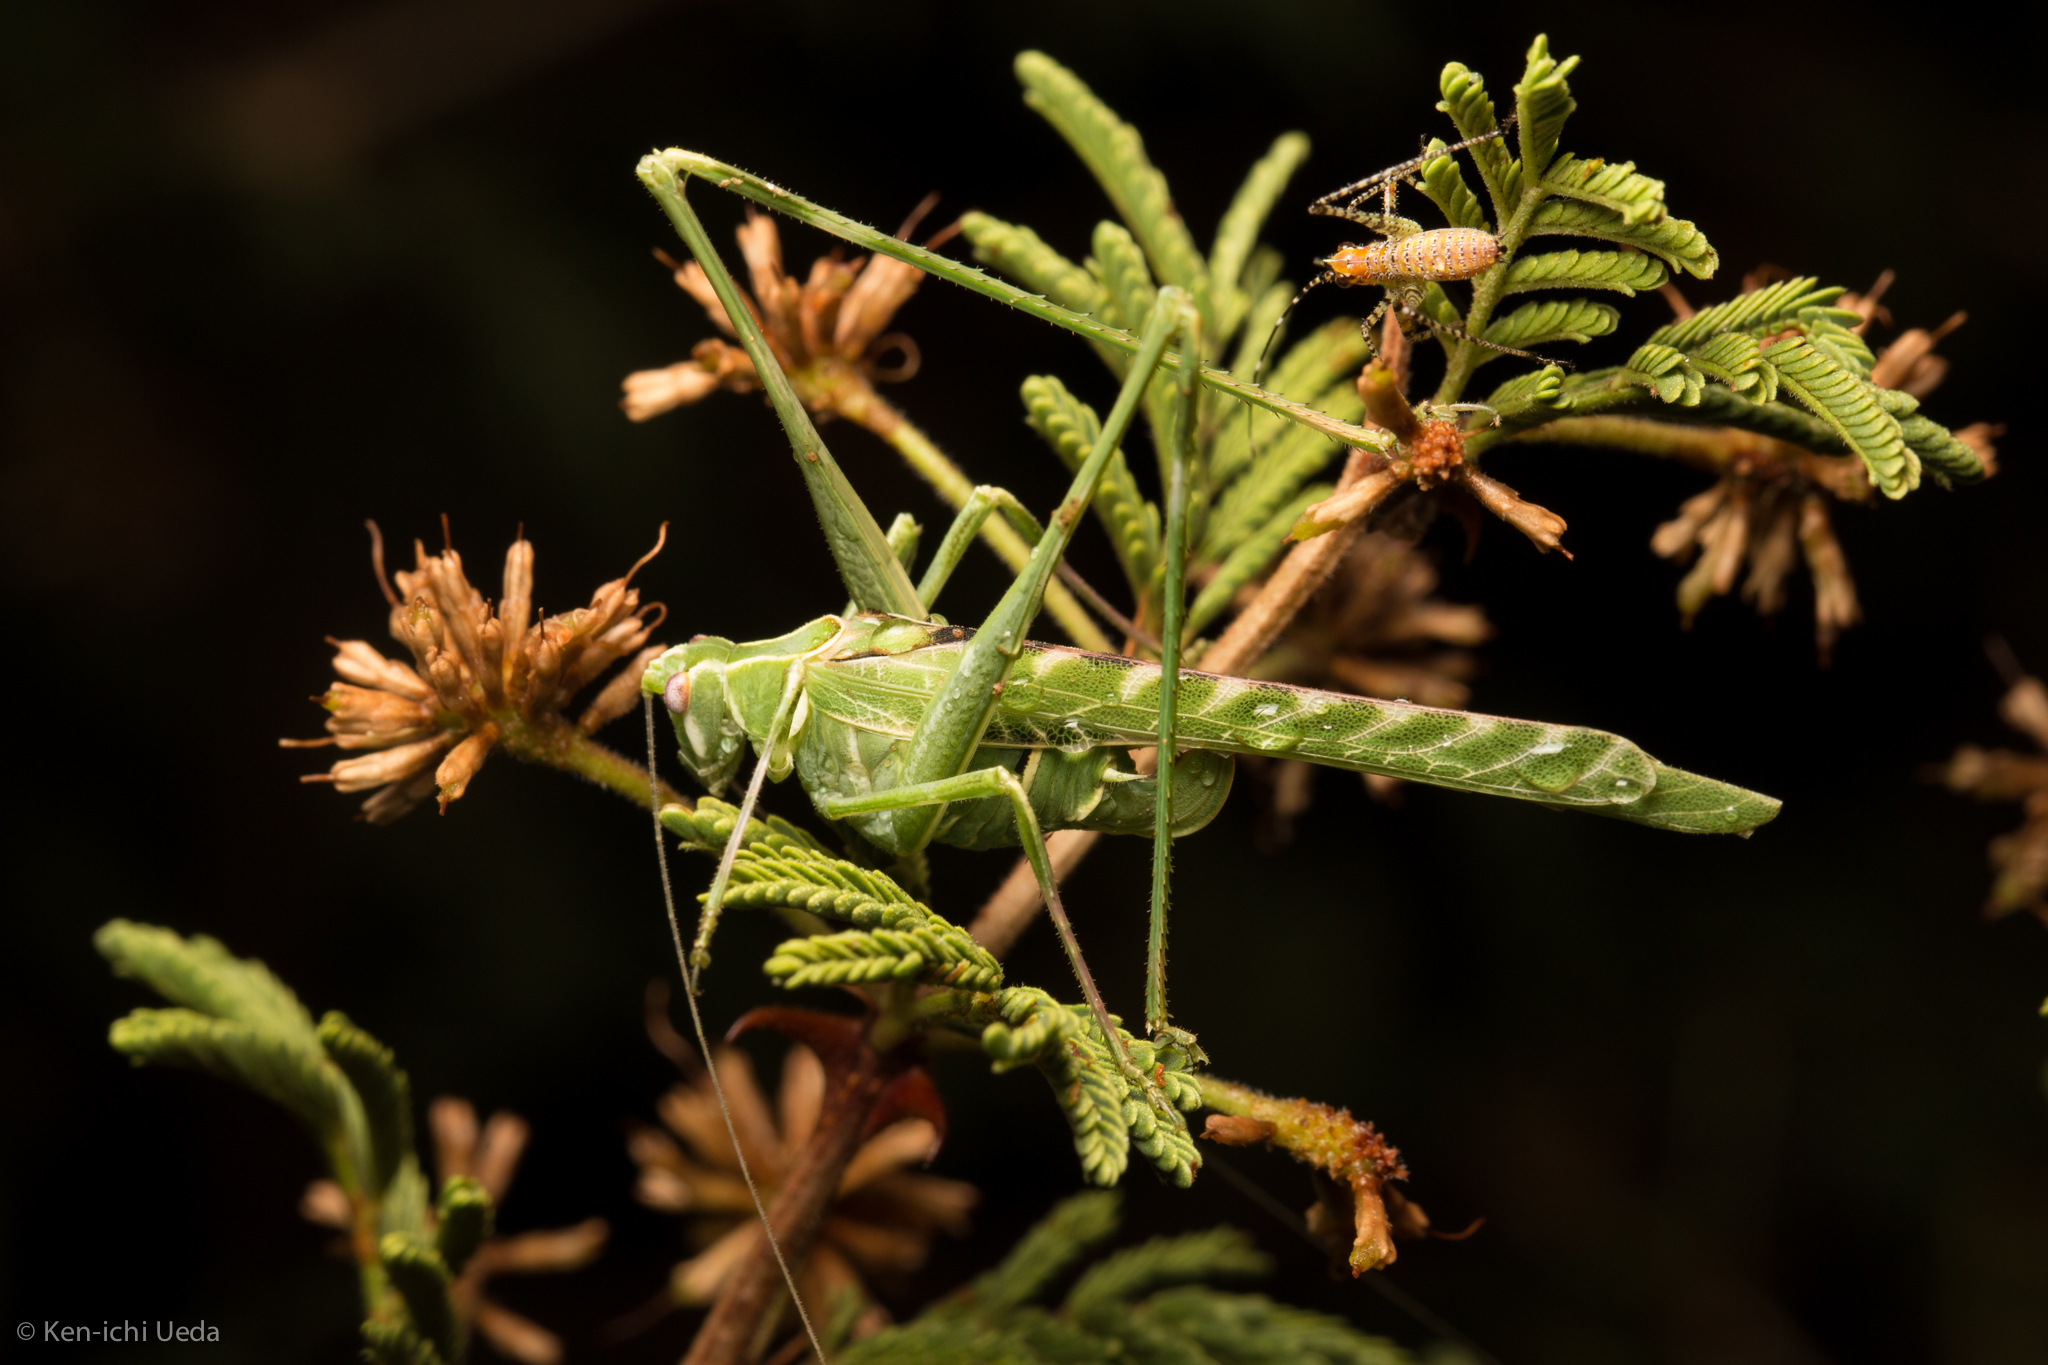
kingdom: Animalia
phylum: Arthropoda
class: Insecta
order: Orthoptera
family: Tettigoniidae
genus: Insara
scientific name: Insara elegans
